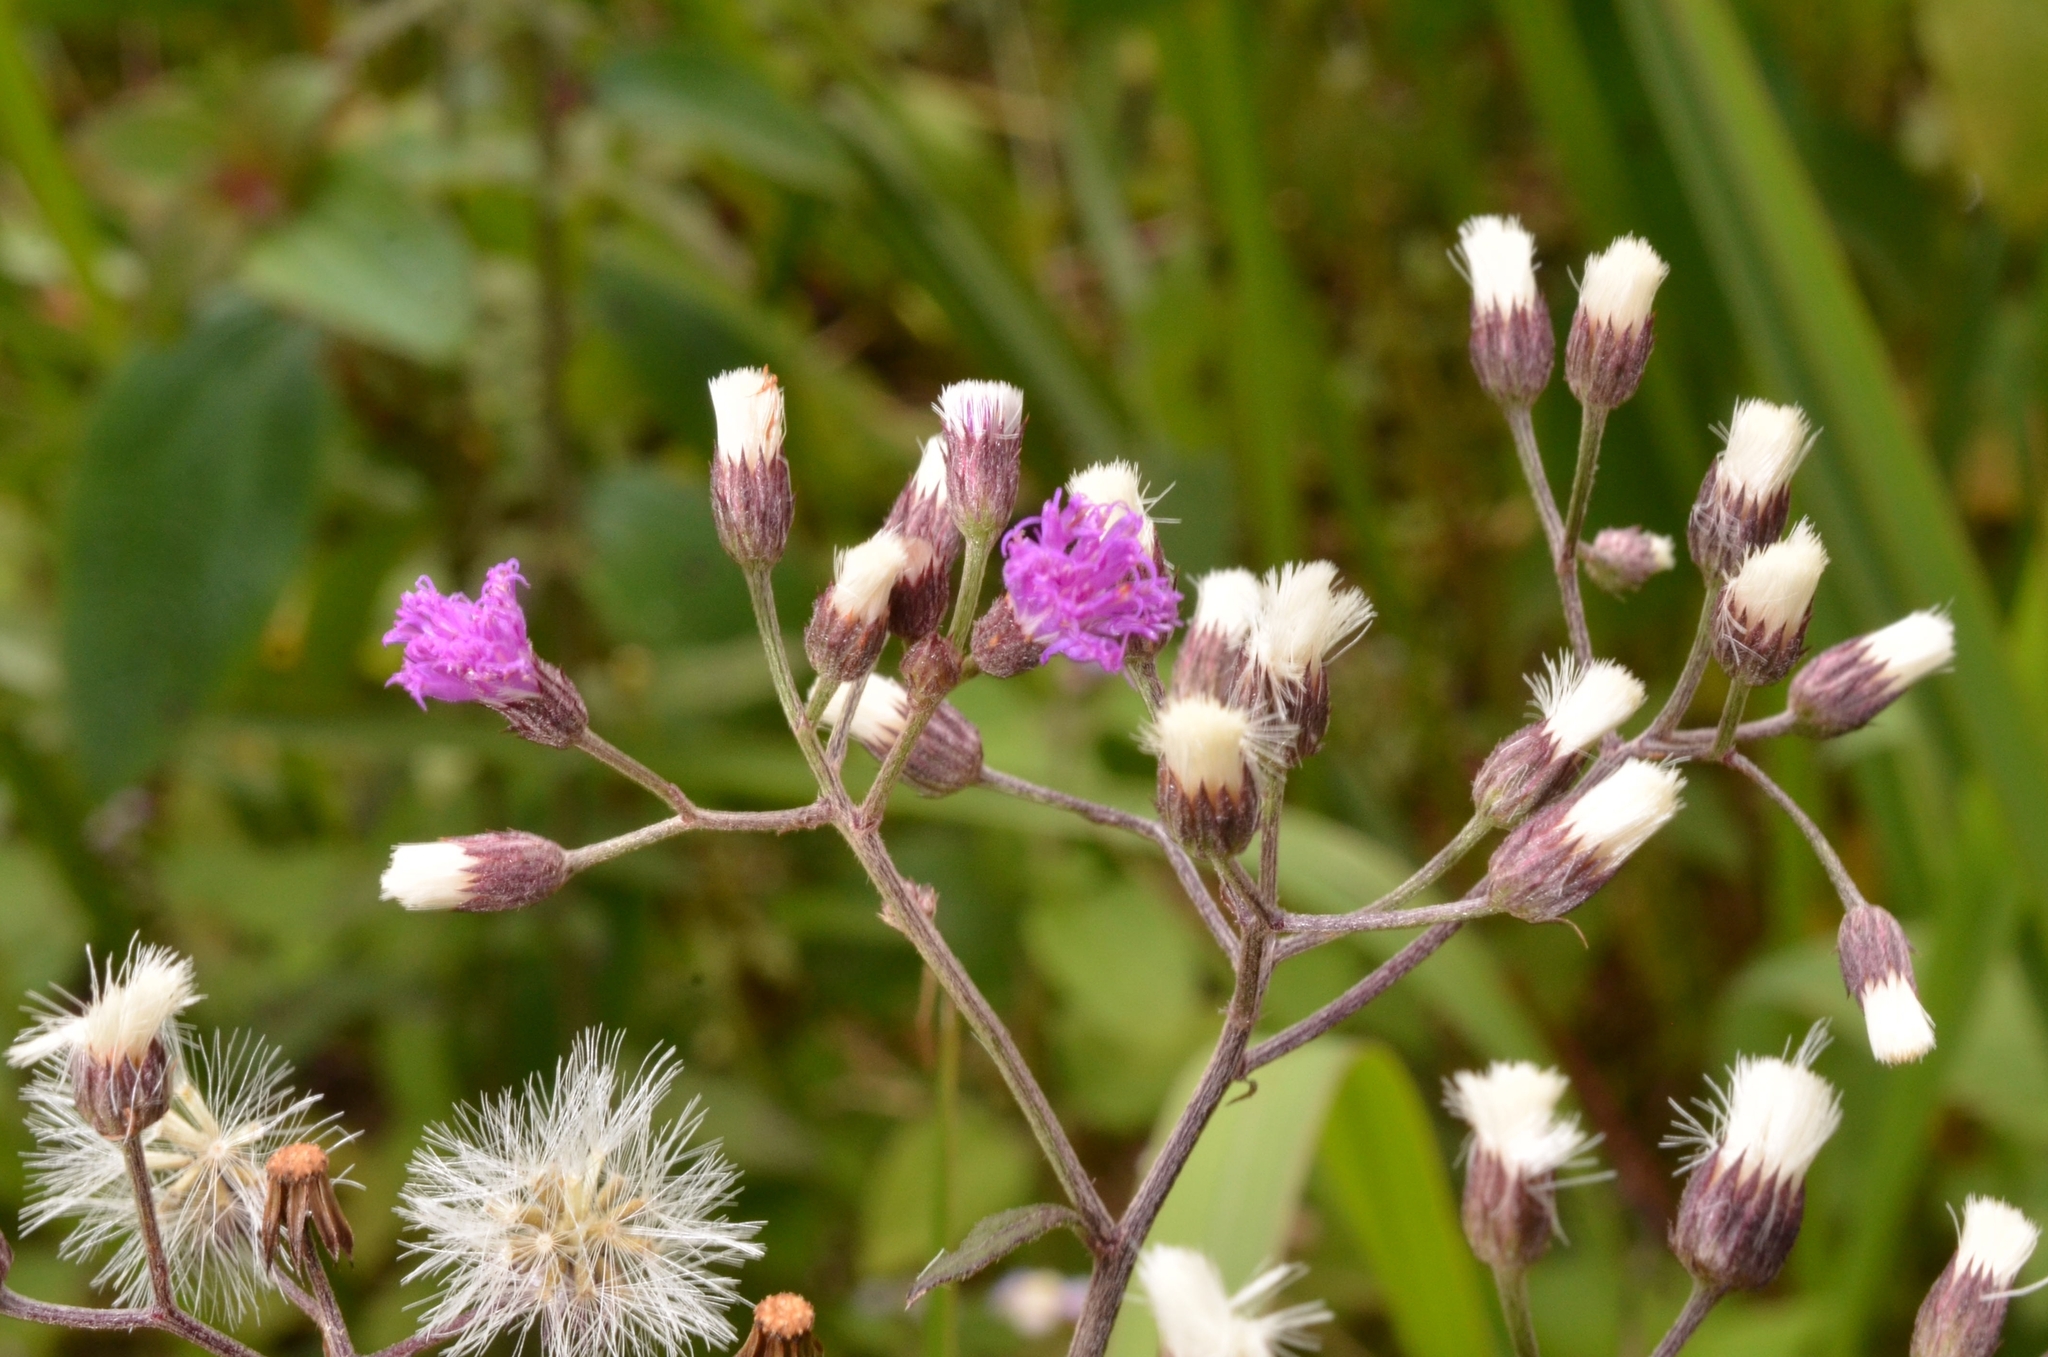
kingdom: Plantae
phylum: Tracheophyta
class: Magnoliopsida
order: Asterales
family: Asteraceae
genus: Cyanthillium
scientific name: Cyanthillium cinereum
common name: Little ironweed
